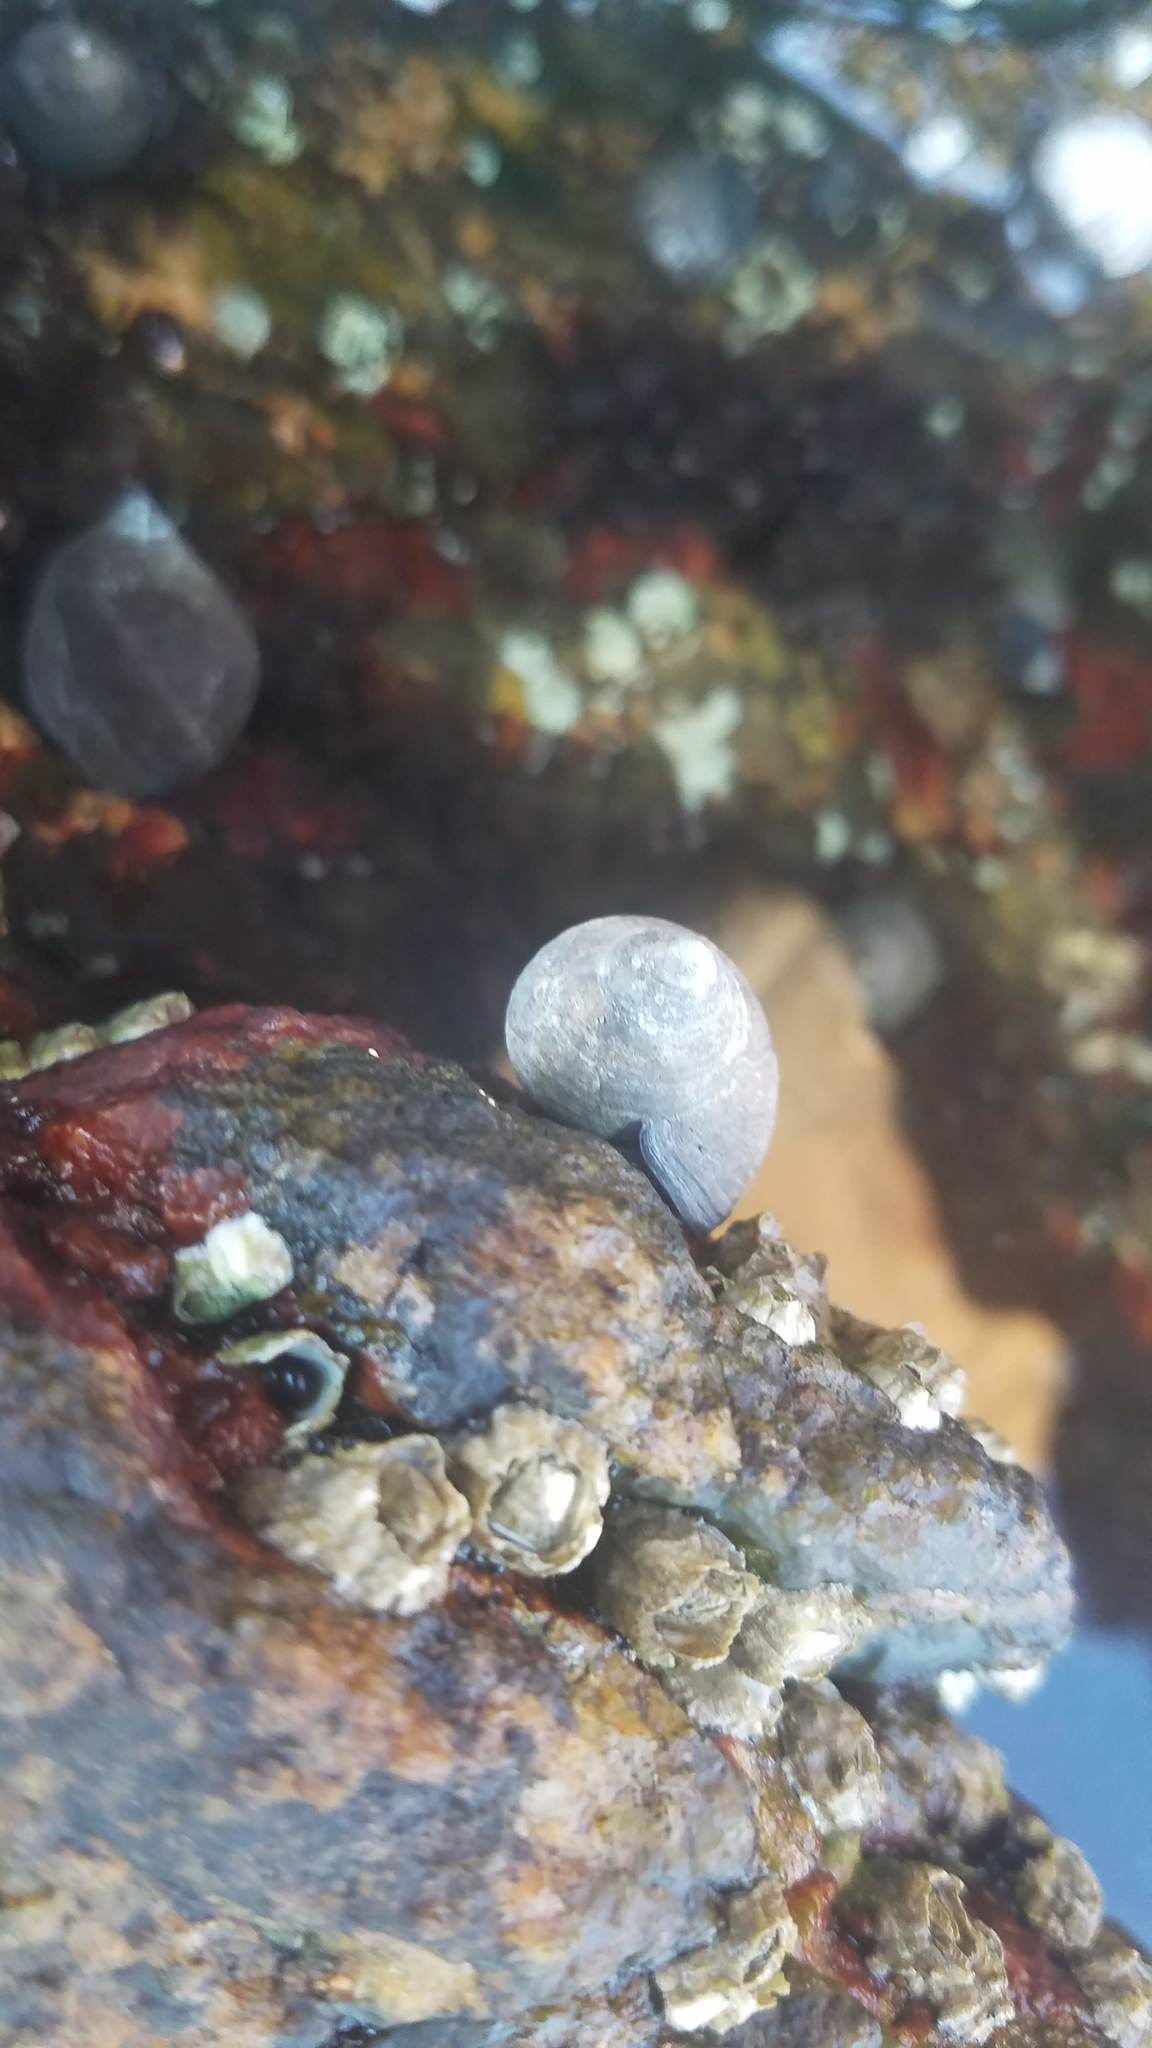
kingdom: Animalia
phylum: Arthropoda
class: Maxillopoda
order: Sessilia
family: Archaeobalanidae
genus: Semibalanus
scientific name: Semibalanus balanoides
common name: Acorn barnacle
